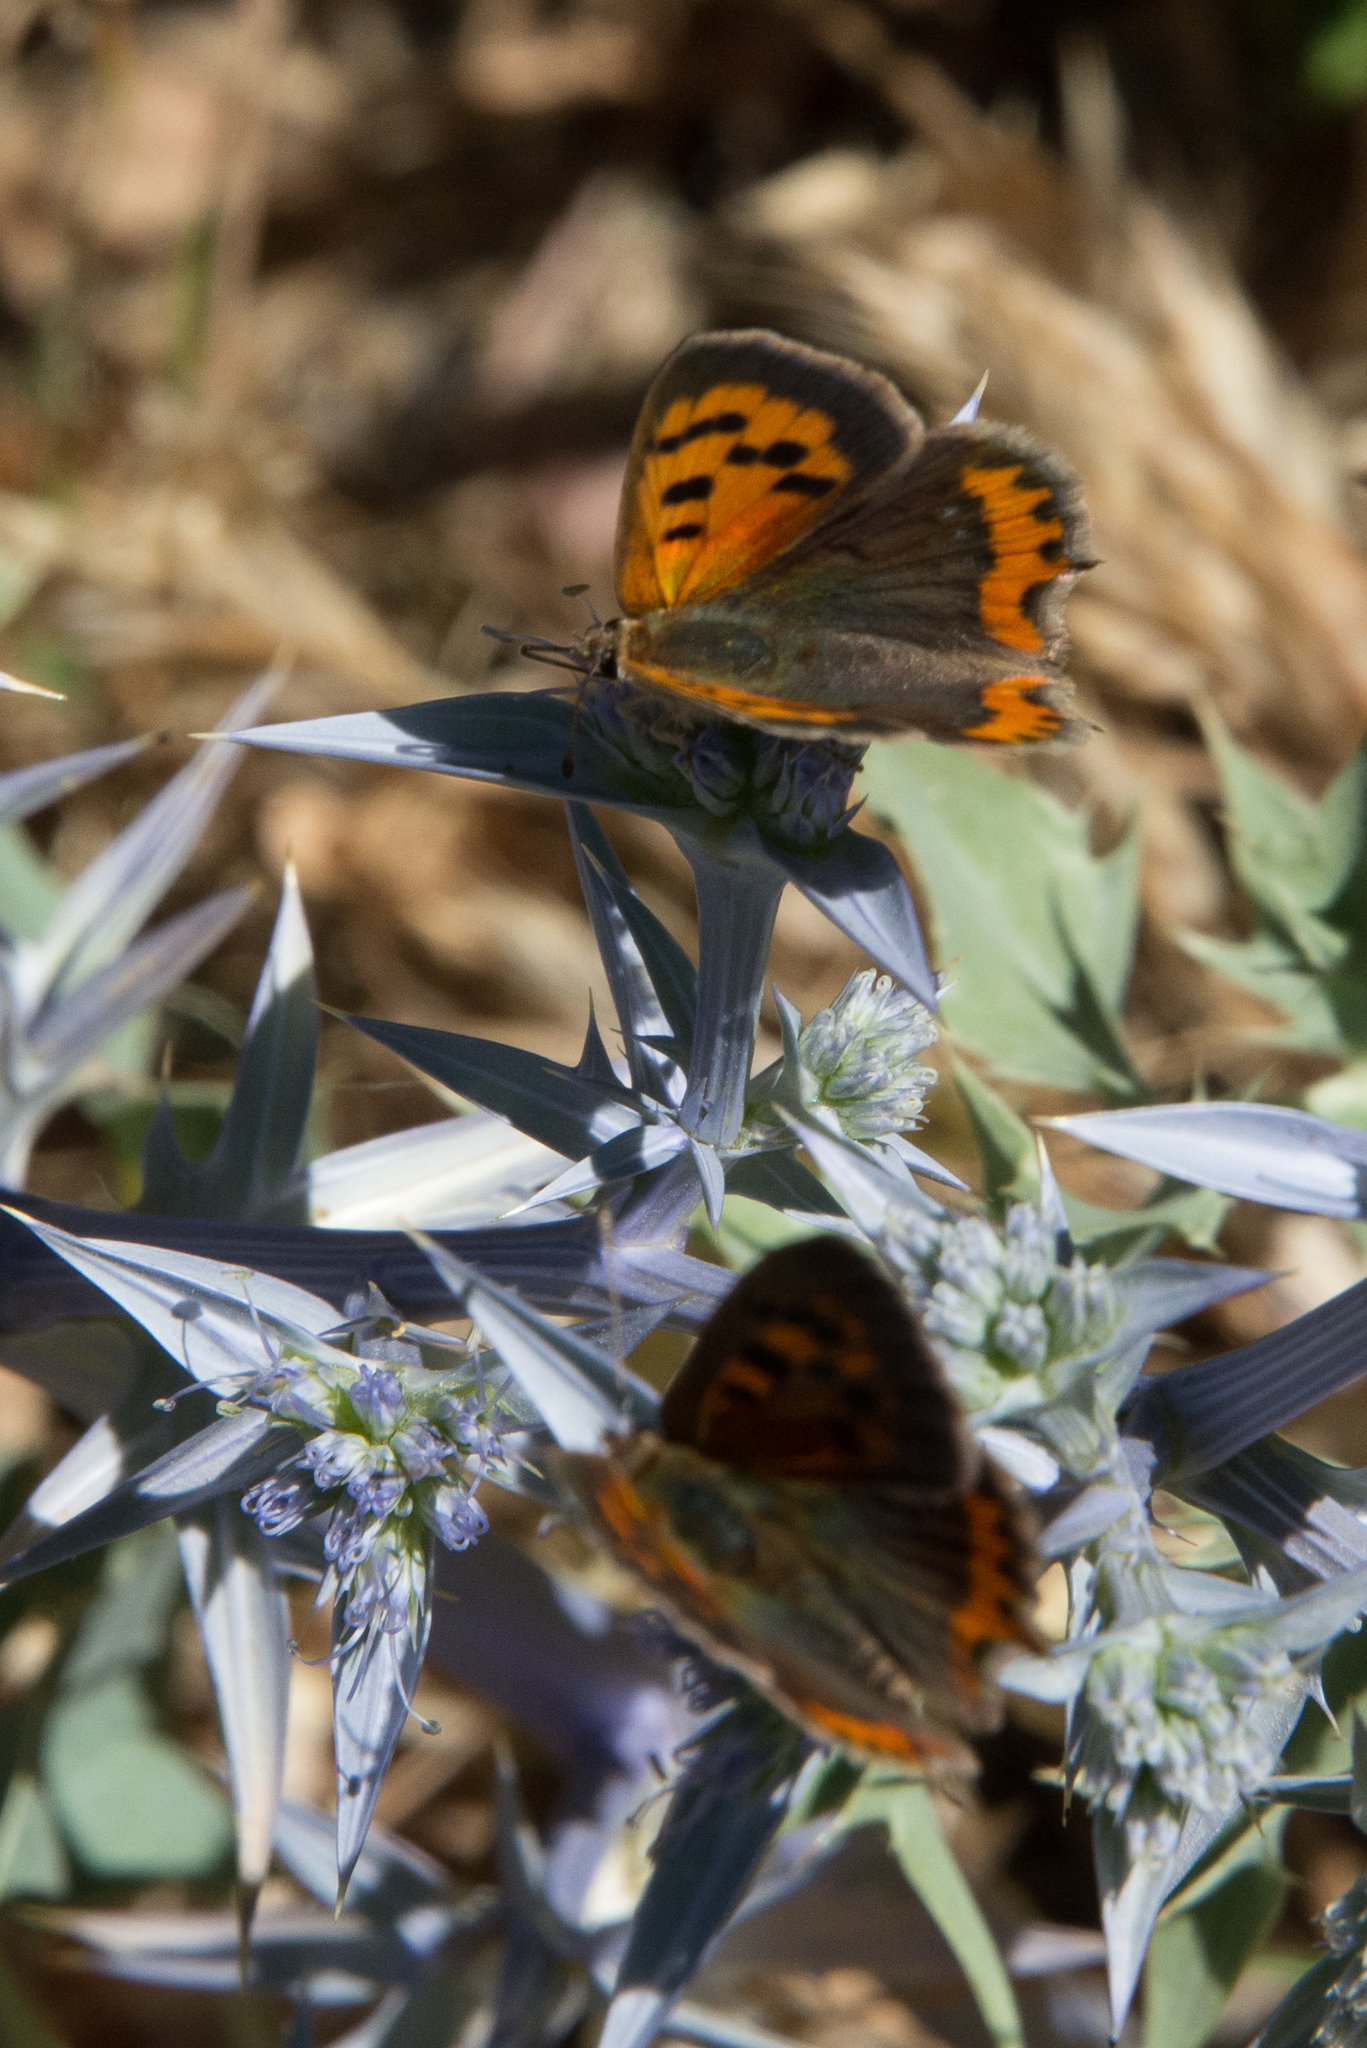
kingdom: Animalia
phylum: Arthropoda
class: Insecta
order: Lepidoptera
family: Lycaenidae
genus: Lycaena
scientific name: Lycaena phlaeas
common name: Small copper
